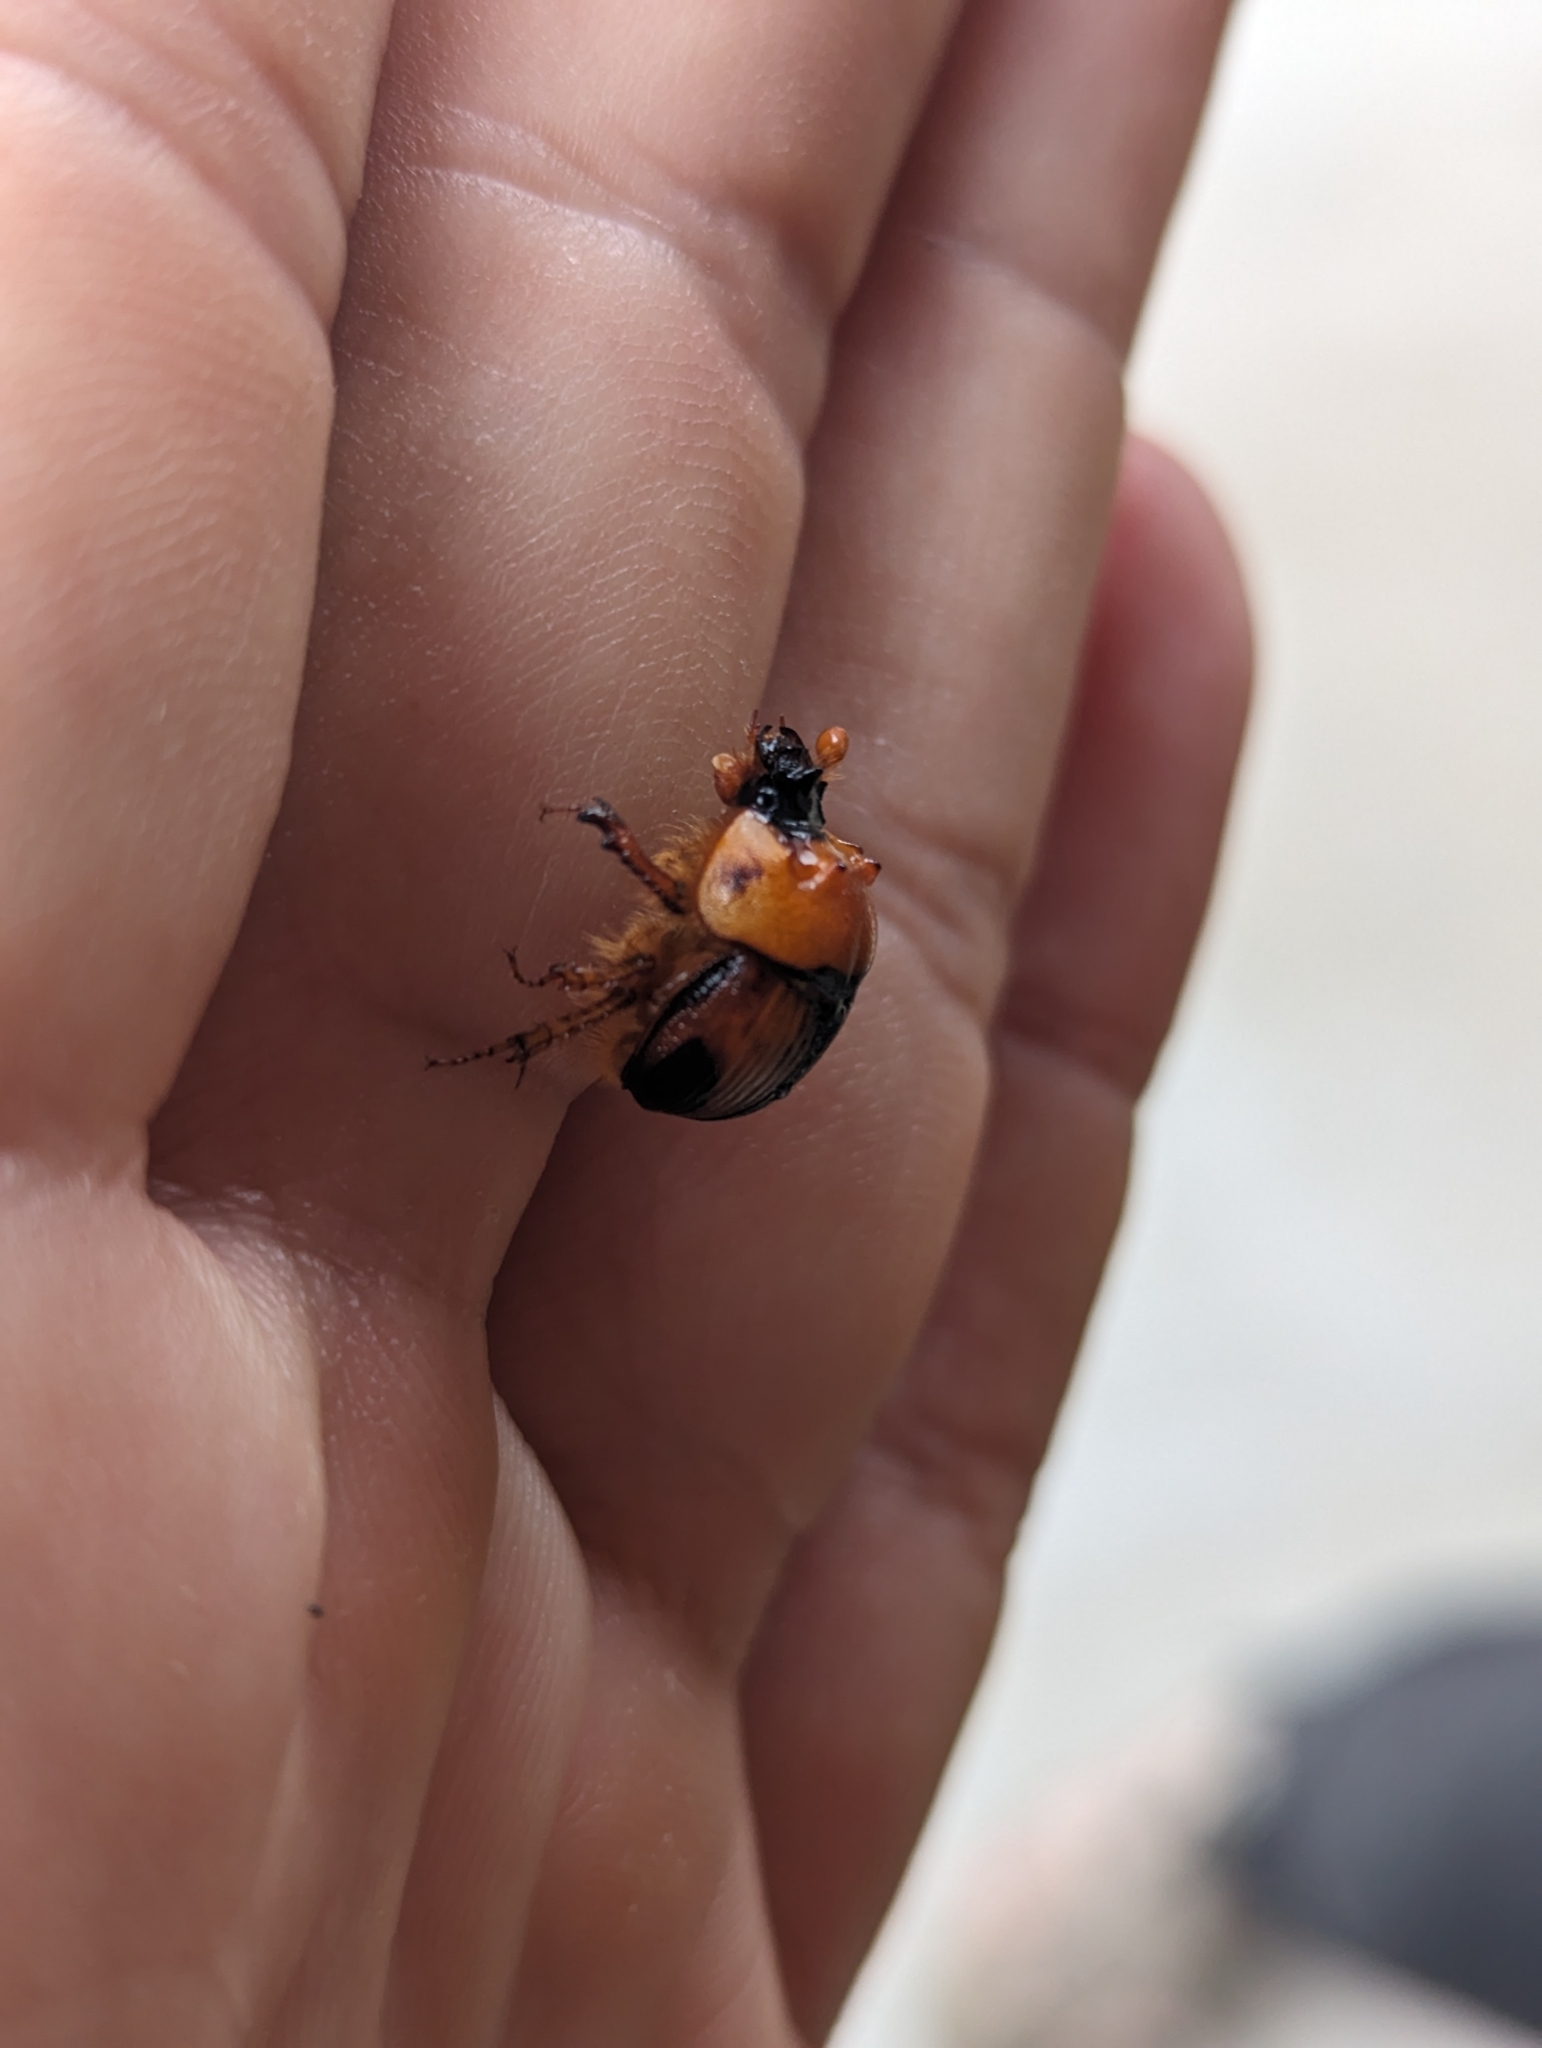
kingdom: Animalia
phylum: Arthropoda
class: Insecta
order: Coleoptera
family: Geotrupidae
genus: Bolbocerosoma
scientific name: Bolbocerosoma bruneri
